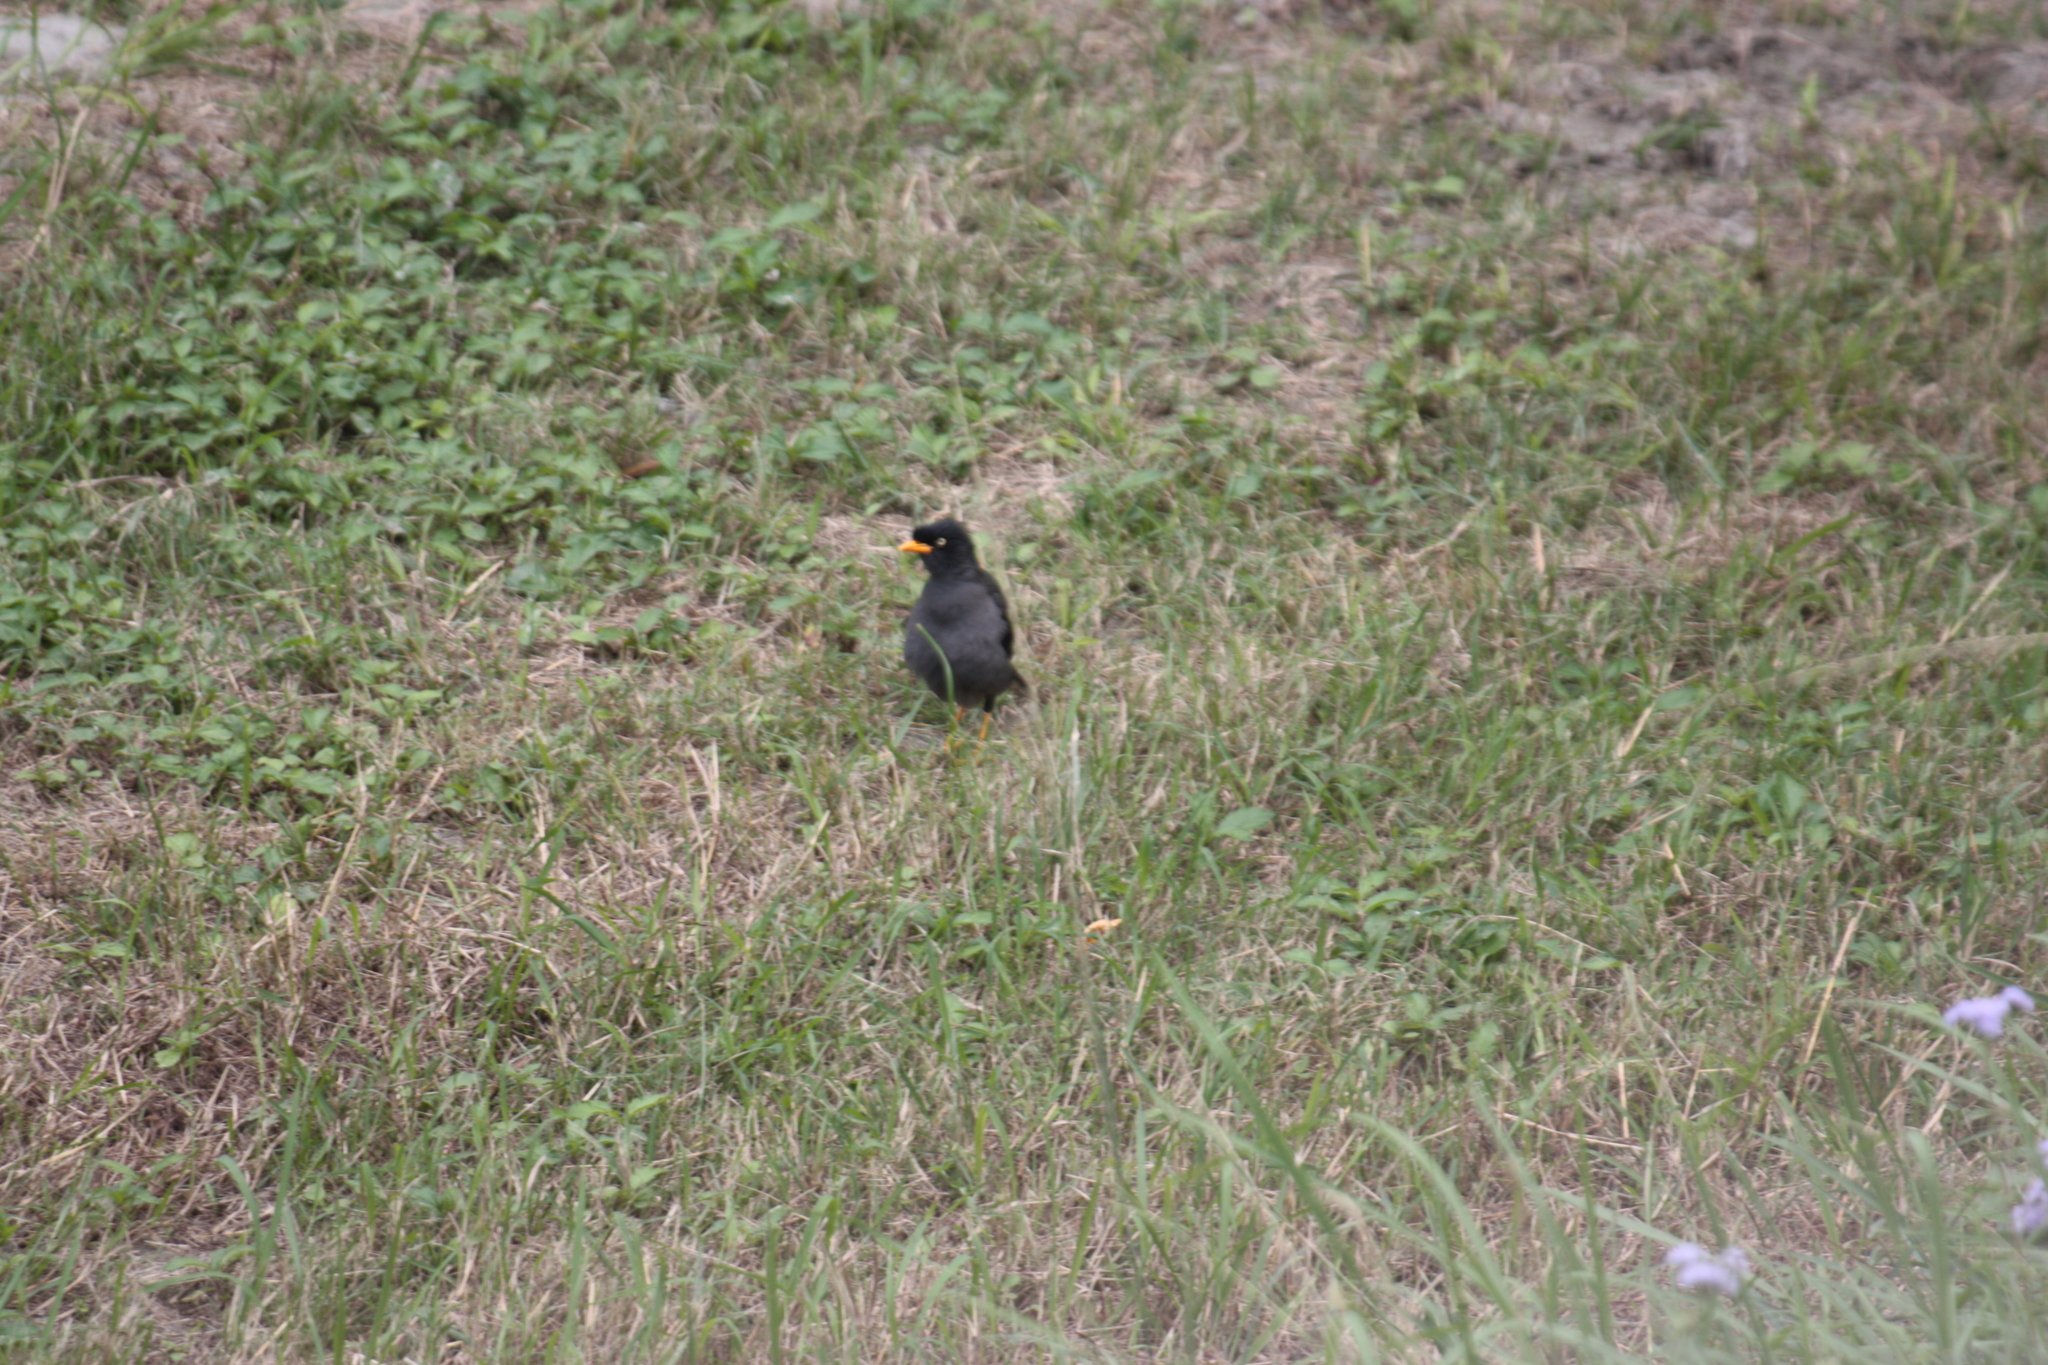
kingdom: Animalia
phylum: Chordata
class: Aves
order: Passeriformes
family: Sturnidae
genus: Acridotheres
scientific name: Acridotheres javanicus
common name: Javan myna
